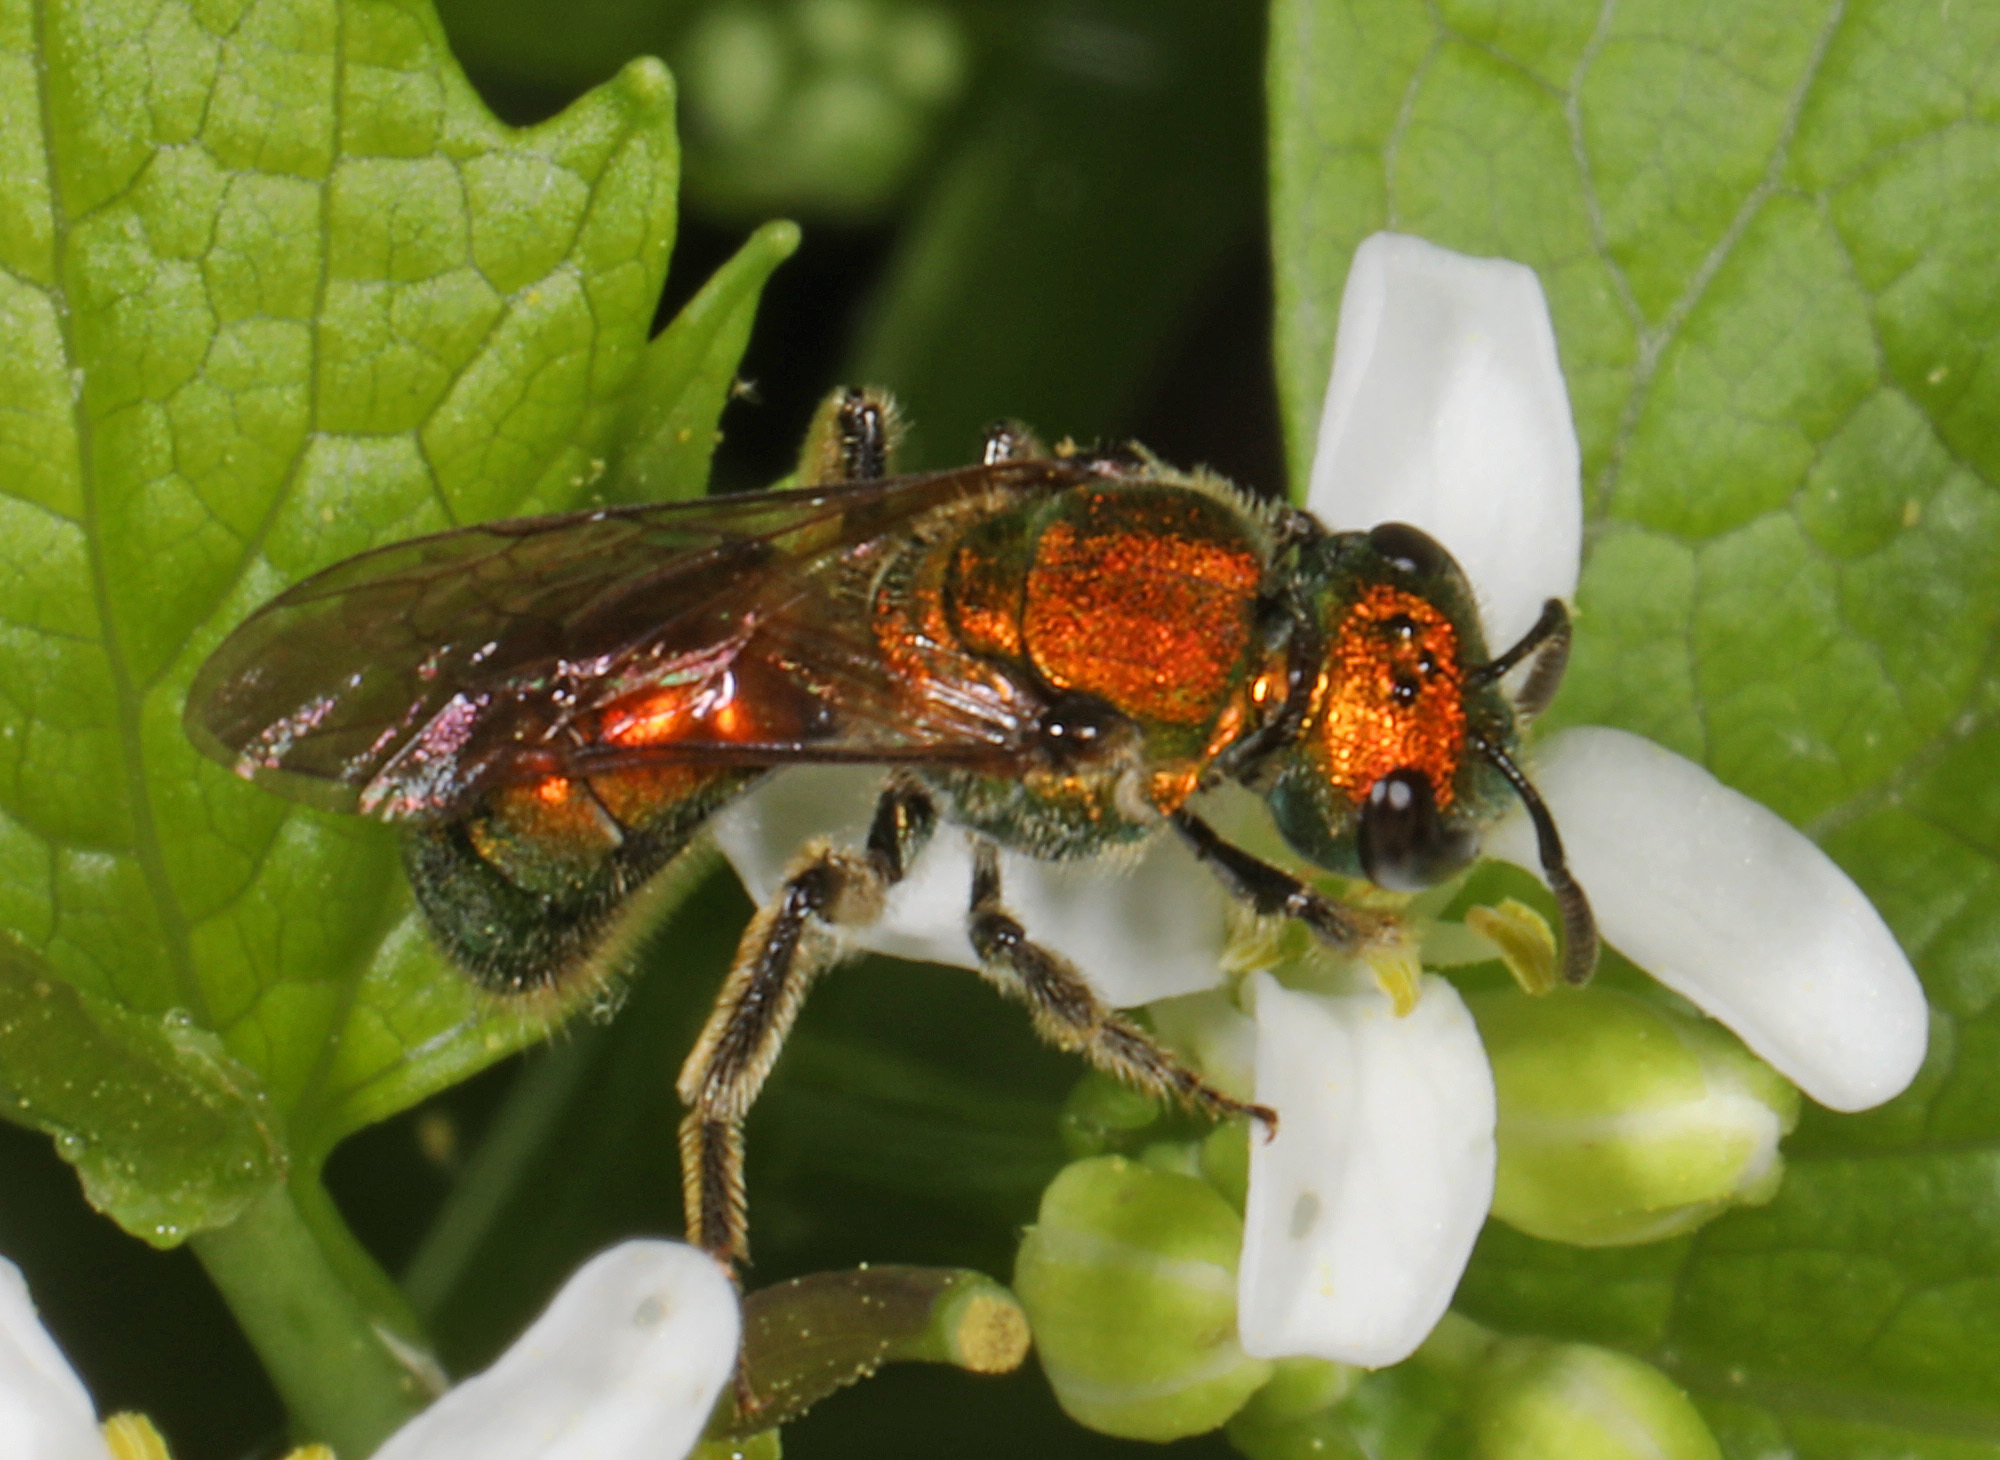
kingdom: Animalia
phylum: Arthropoda
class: Insecta
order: Hymenoptera
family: Halictidae
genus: Augochlora
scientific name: Augochlora pura
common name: Pure green sweat bee
